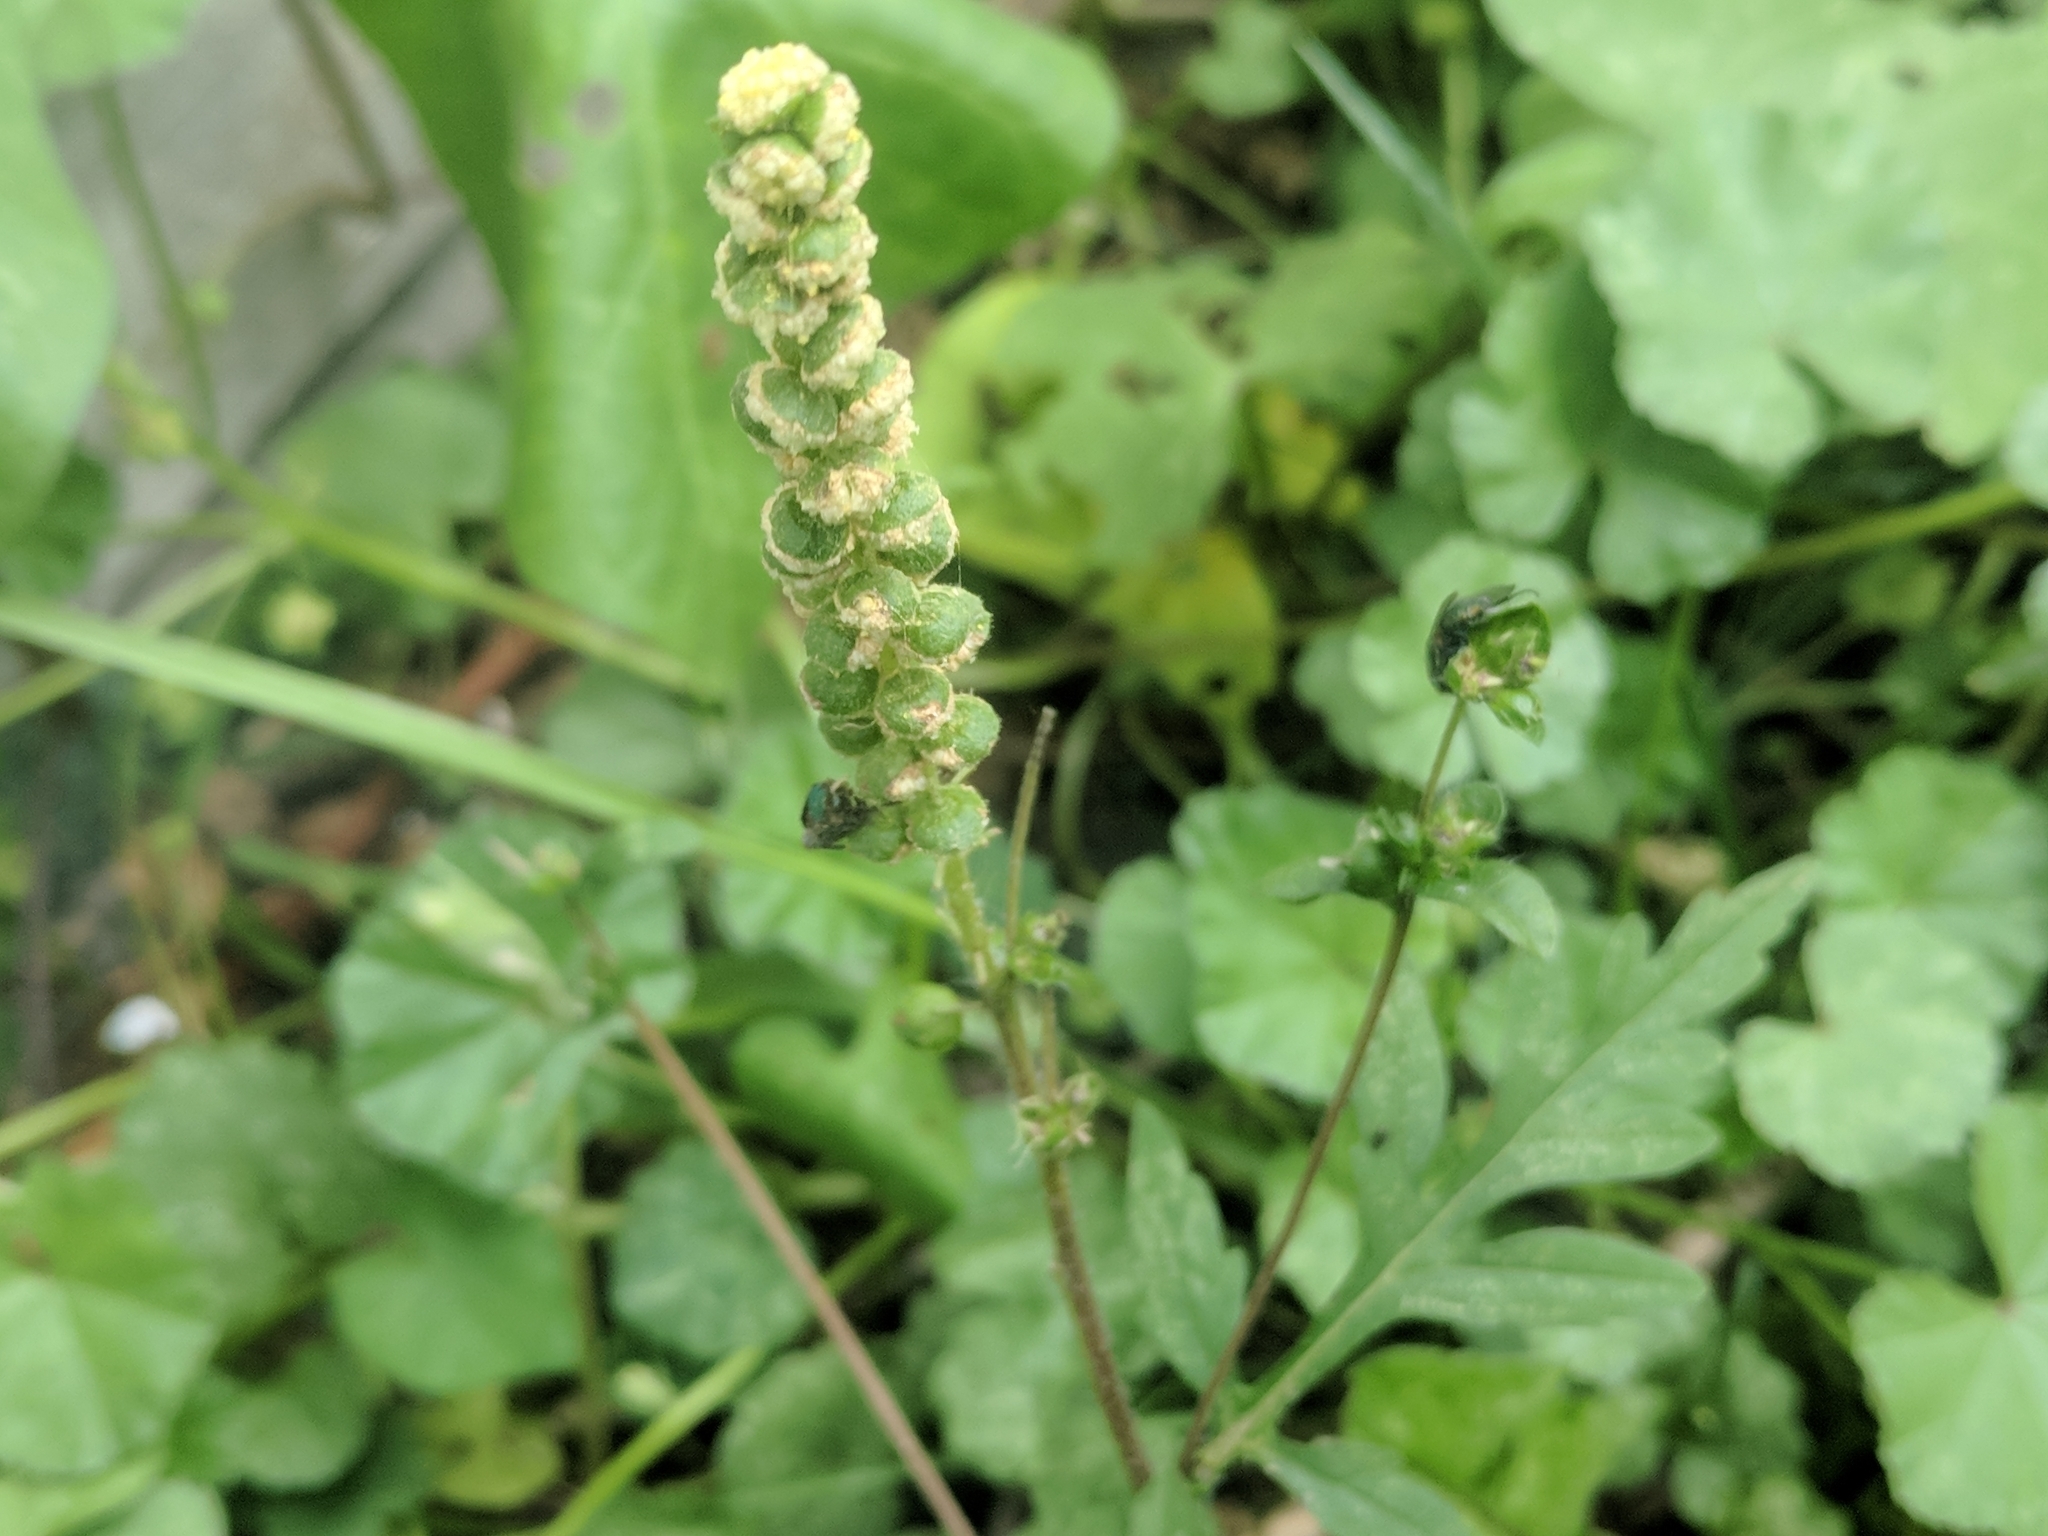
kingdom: Plantae
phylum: Tracheophyta
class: Magnoliopsida
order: Asterales
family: Asteraceae
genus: Ambrosia
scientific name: Ambrosia artemisiifolia
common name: Annual ragweed
